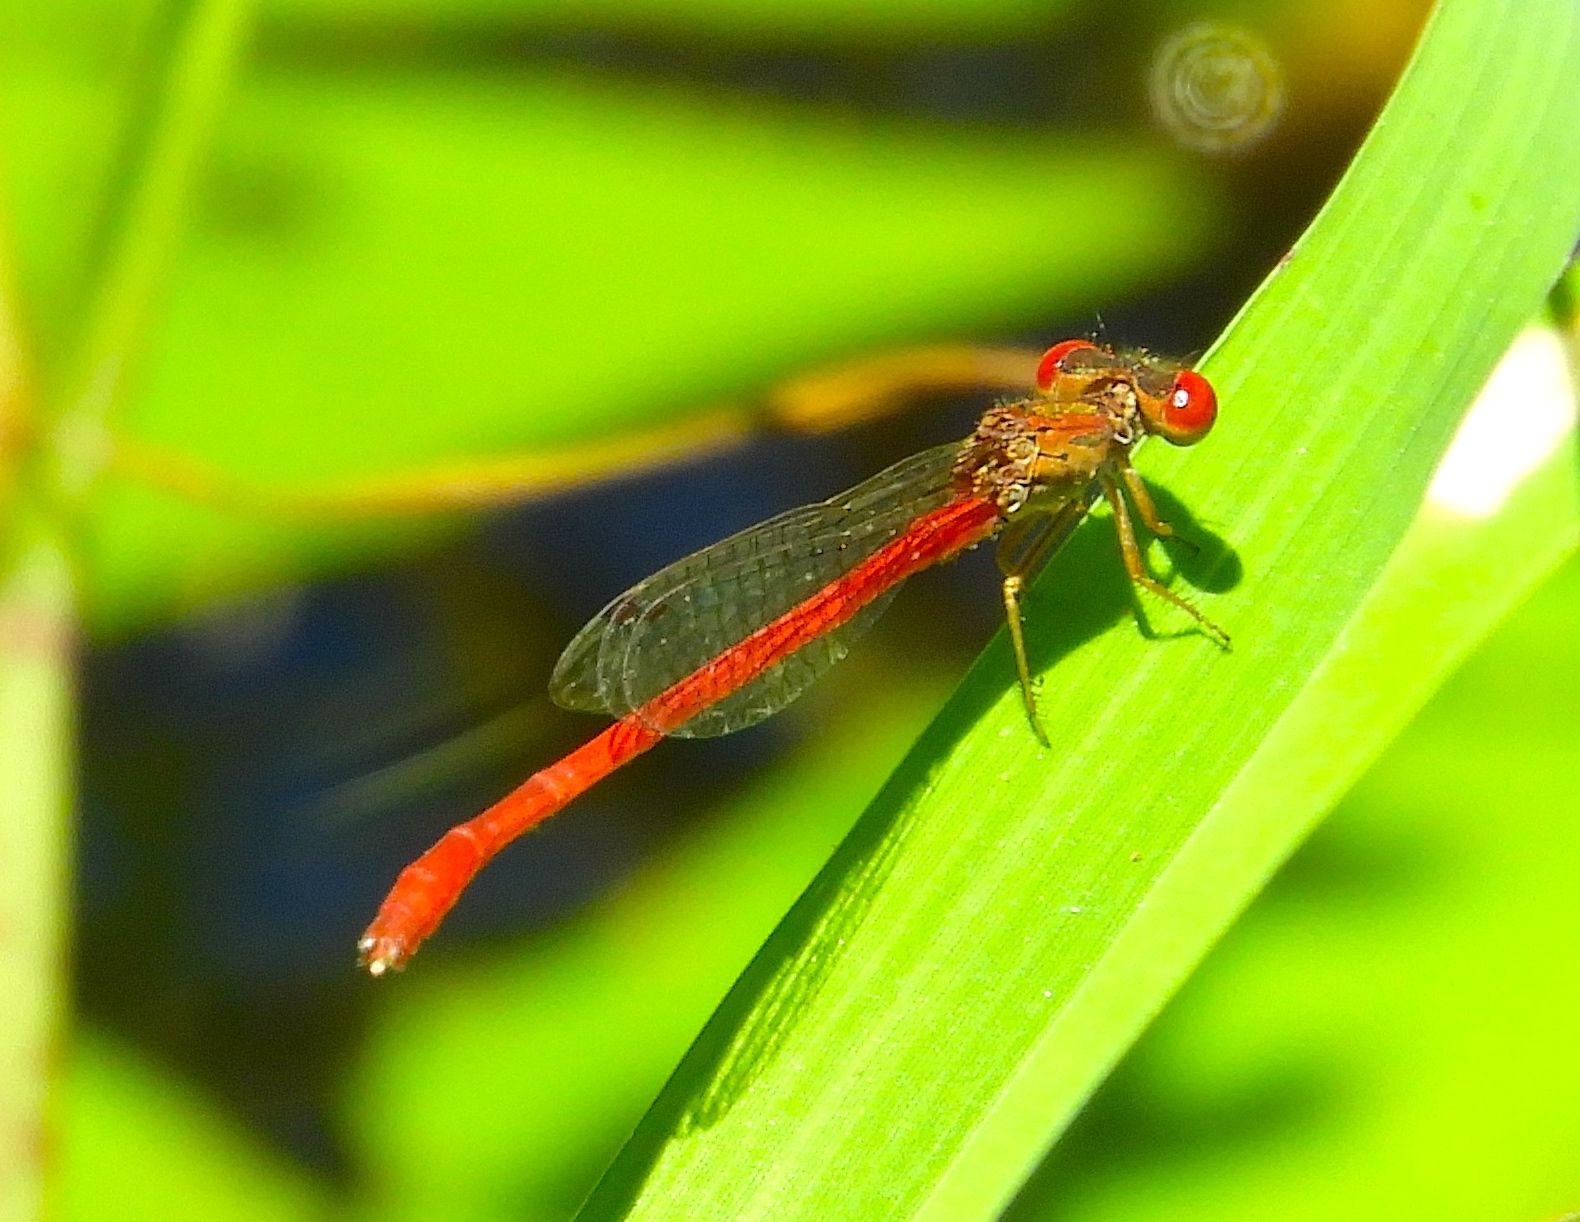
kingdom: Animalia
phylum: Arthropoda
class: Insecta
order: Odonata
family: Coenagrionidae
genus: Telebasis
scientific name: Telebasis salva
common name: Desert firetail
